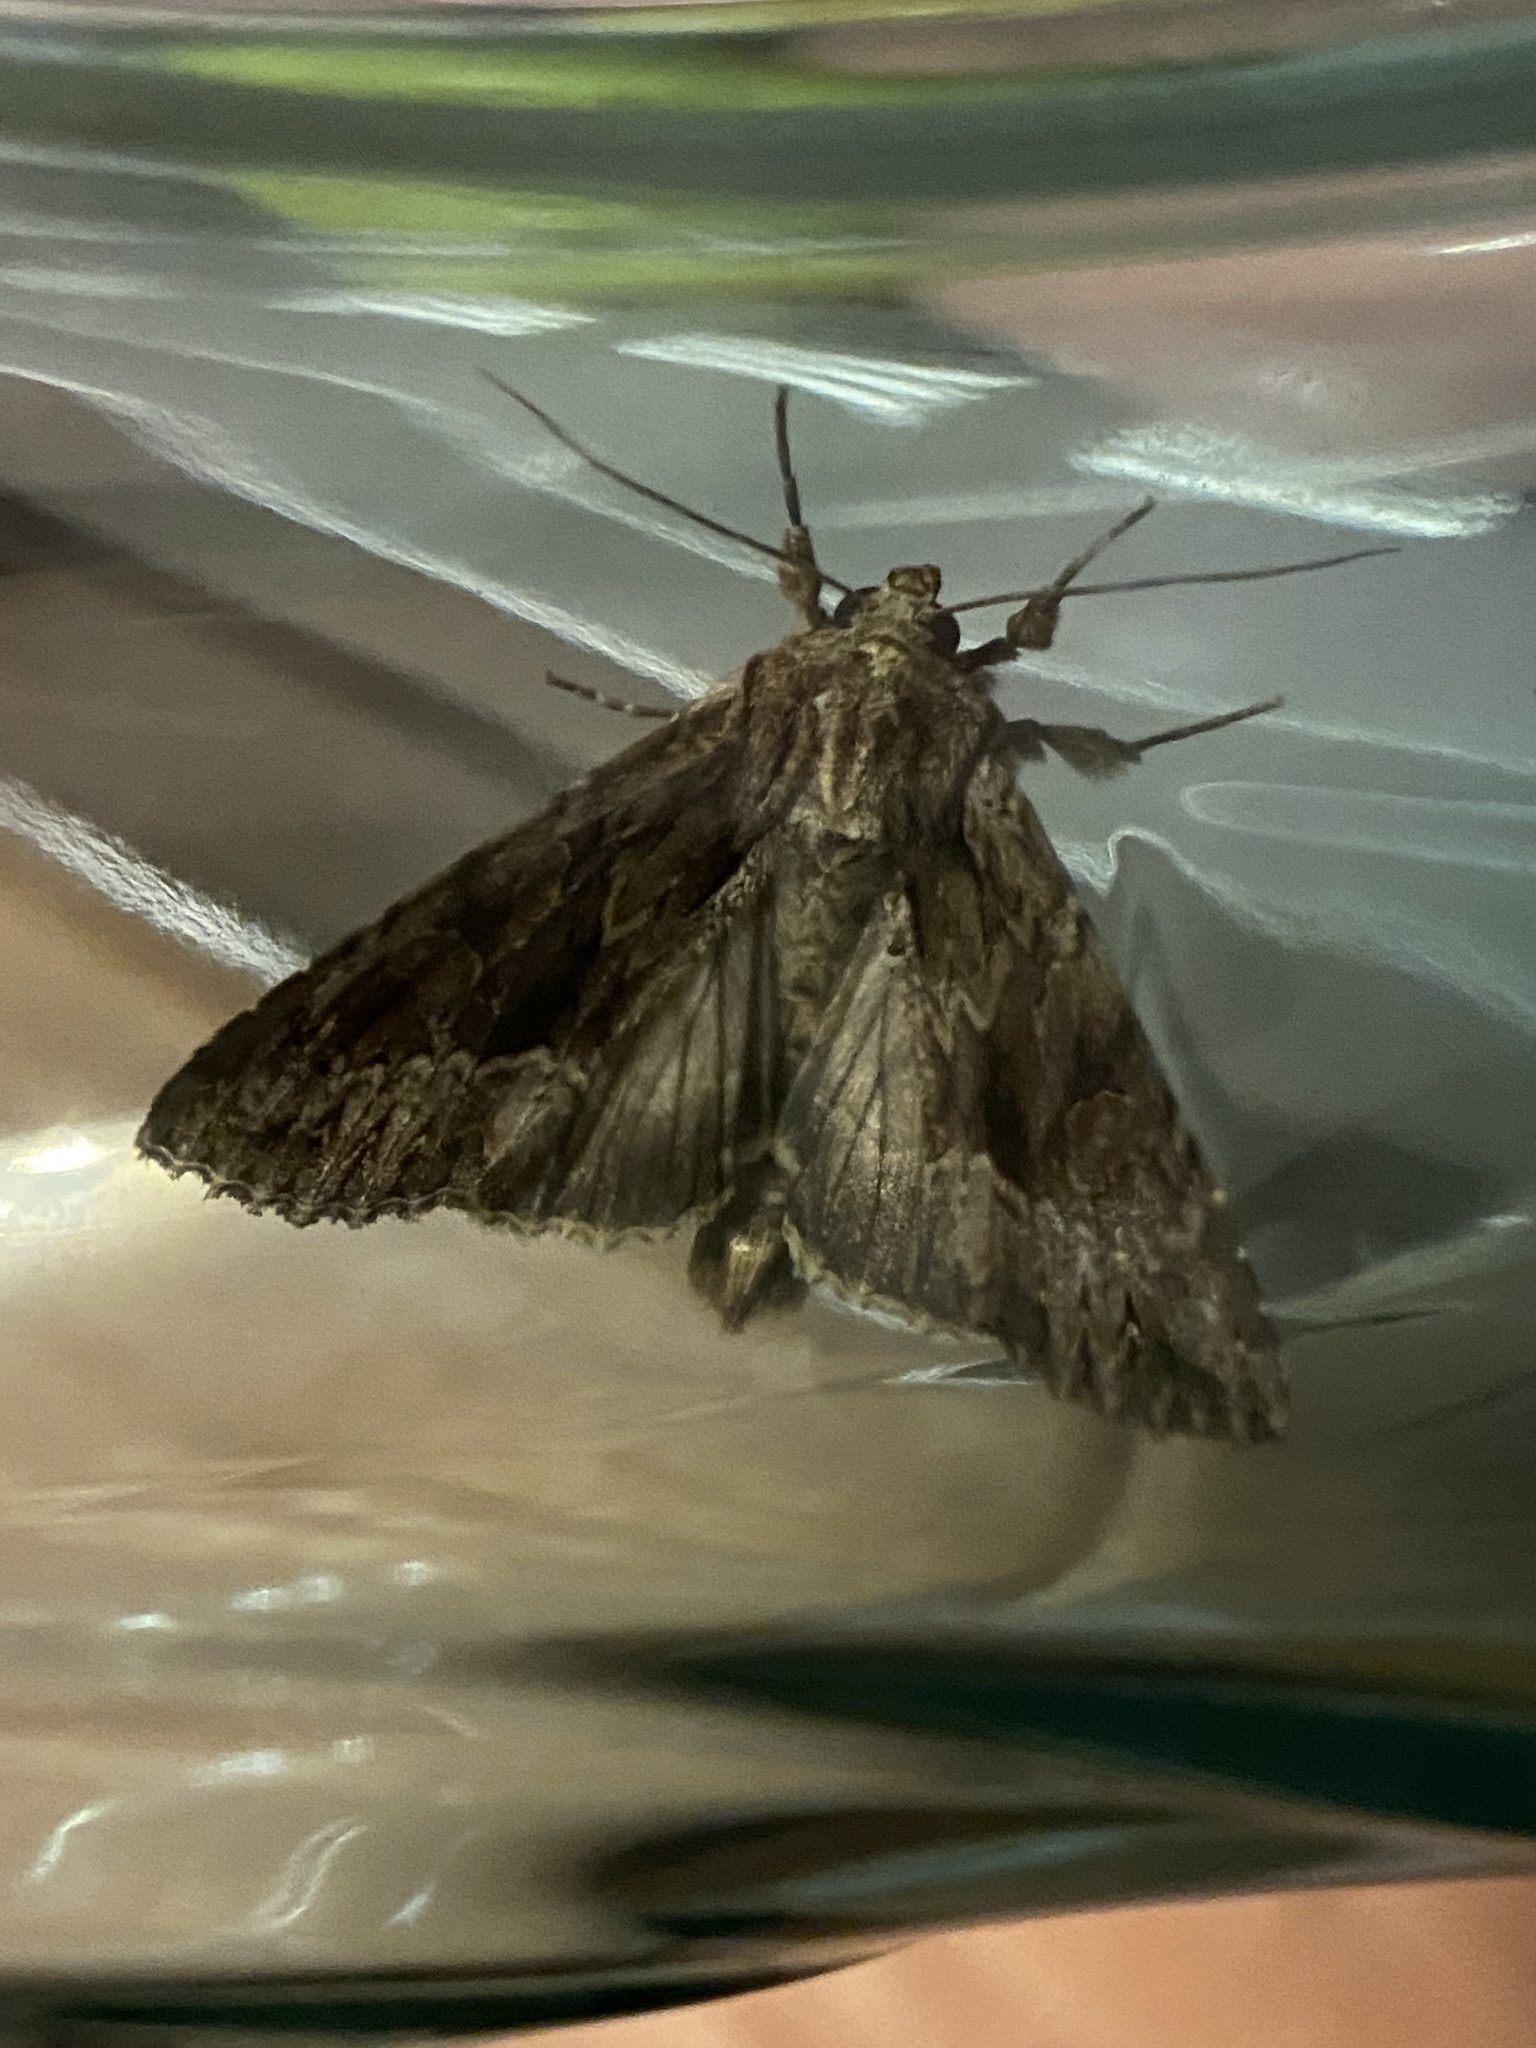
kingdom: Animalia
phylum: Arthropoda
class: Insecta
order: Lepidoptera
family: Noctuidae
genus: Apamea
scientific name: Apamea monoglypha
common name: Dark arches
